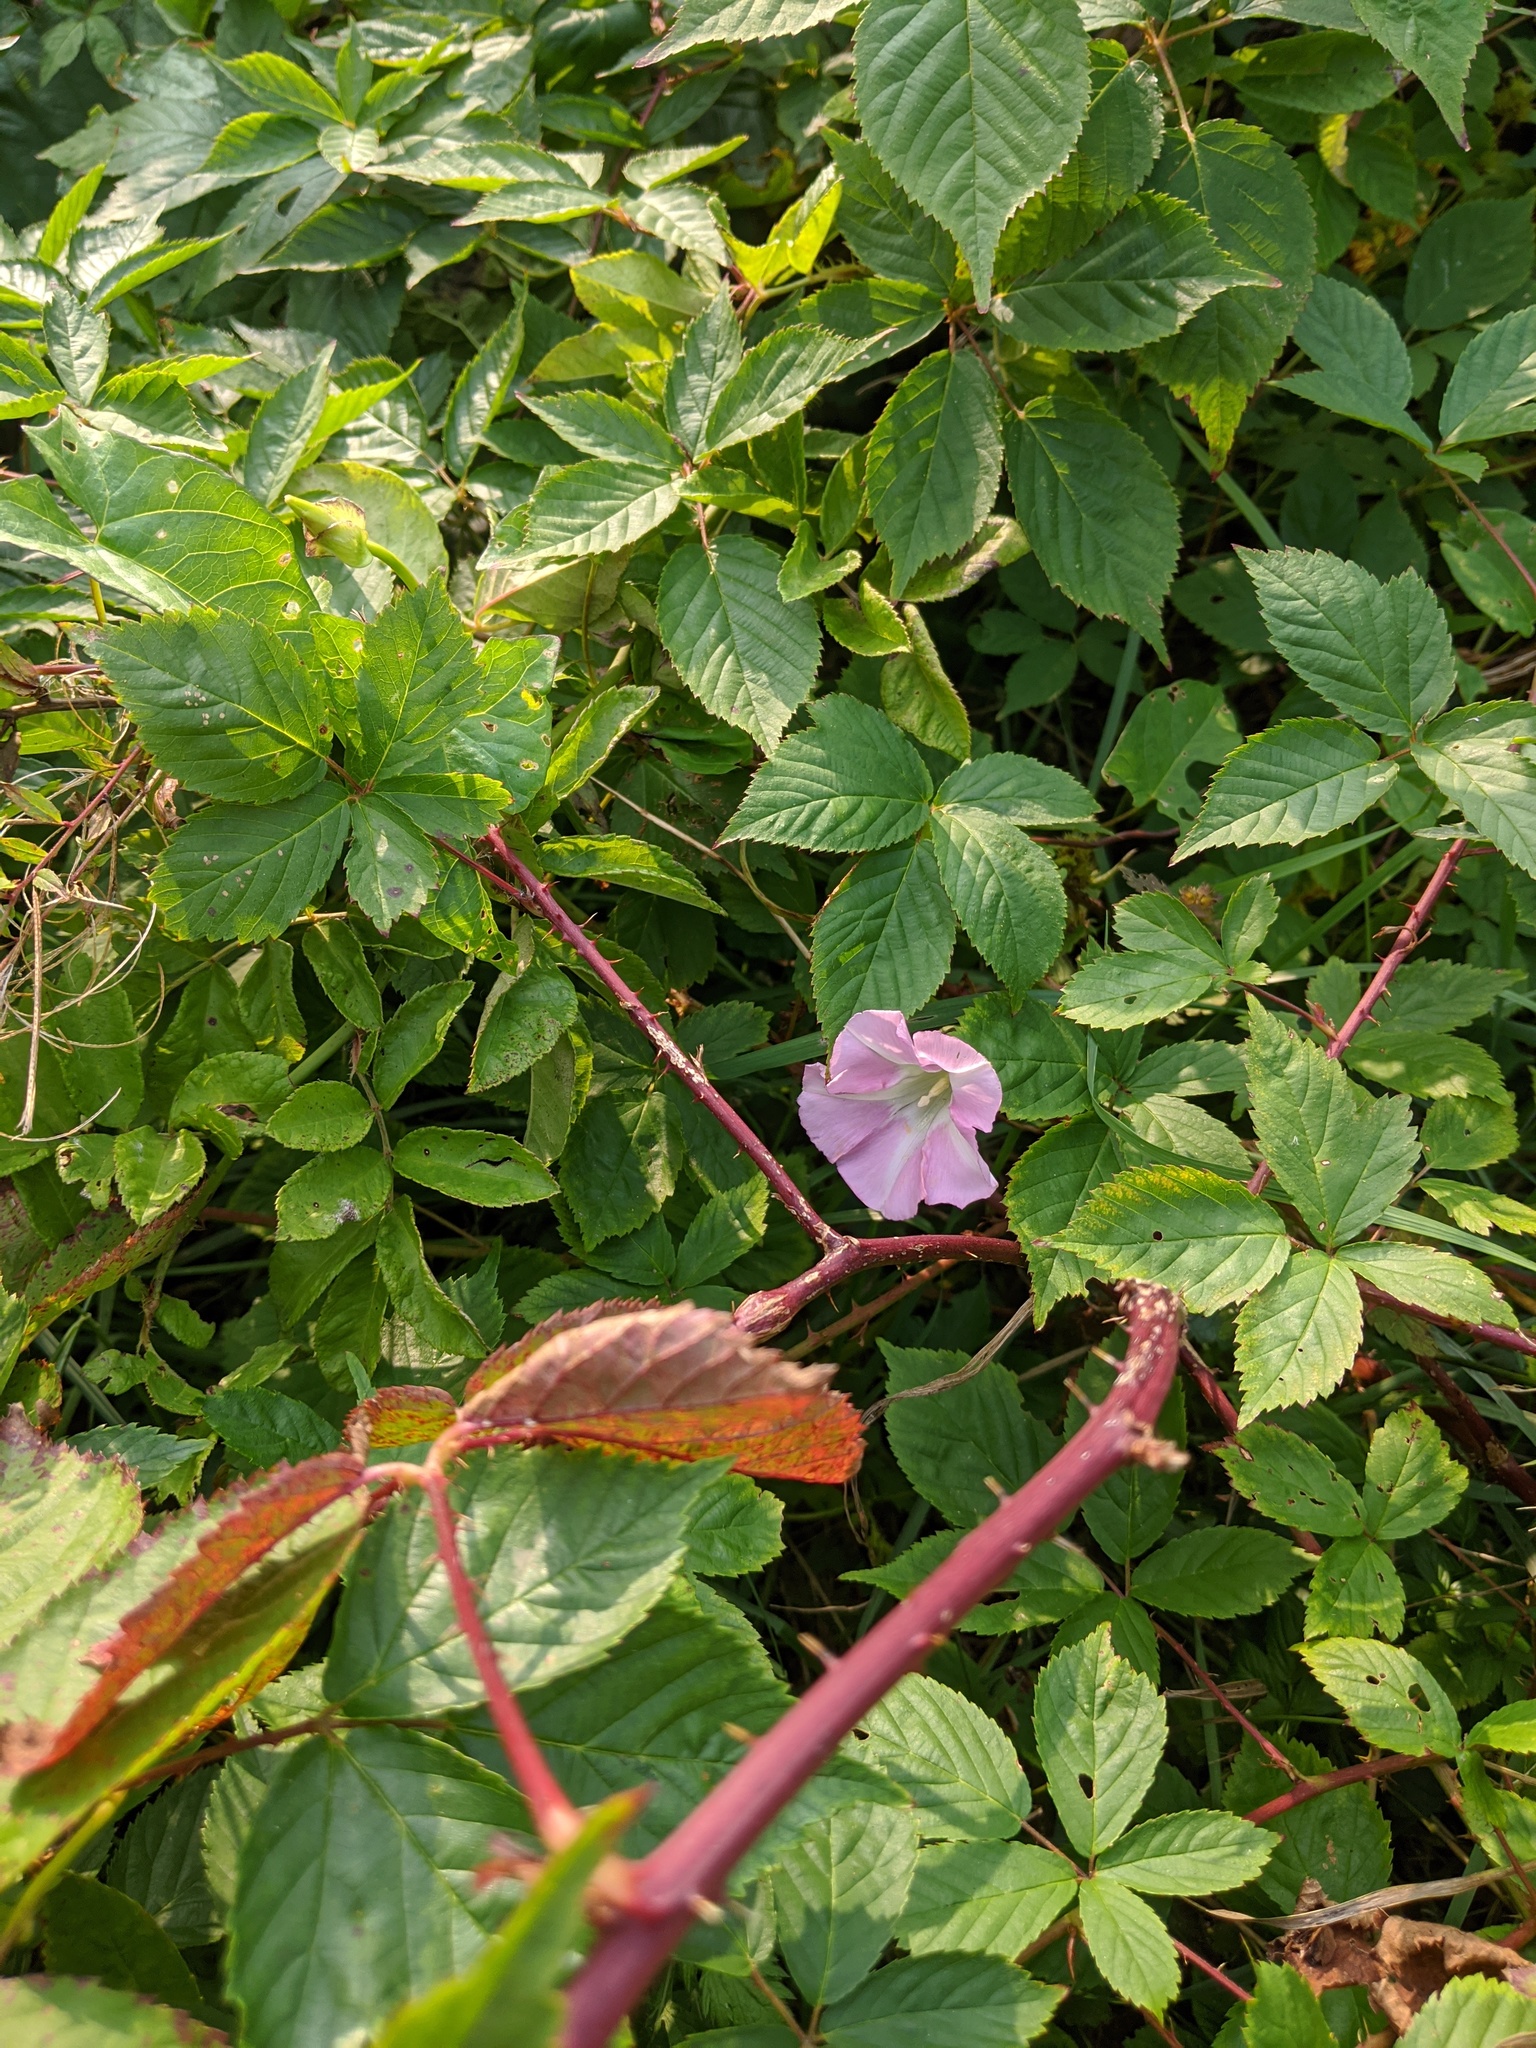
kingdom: Plantae
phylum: Tracheophyta
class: Magnoliopsida
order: Solanales
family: Convolvulaceae
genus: Calystegia
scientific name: Calystegia sepium
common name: Hedge bindweed
